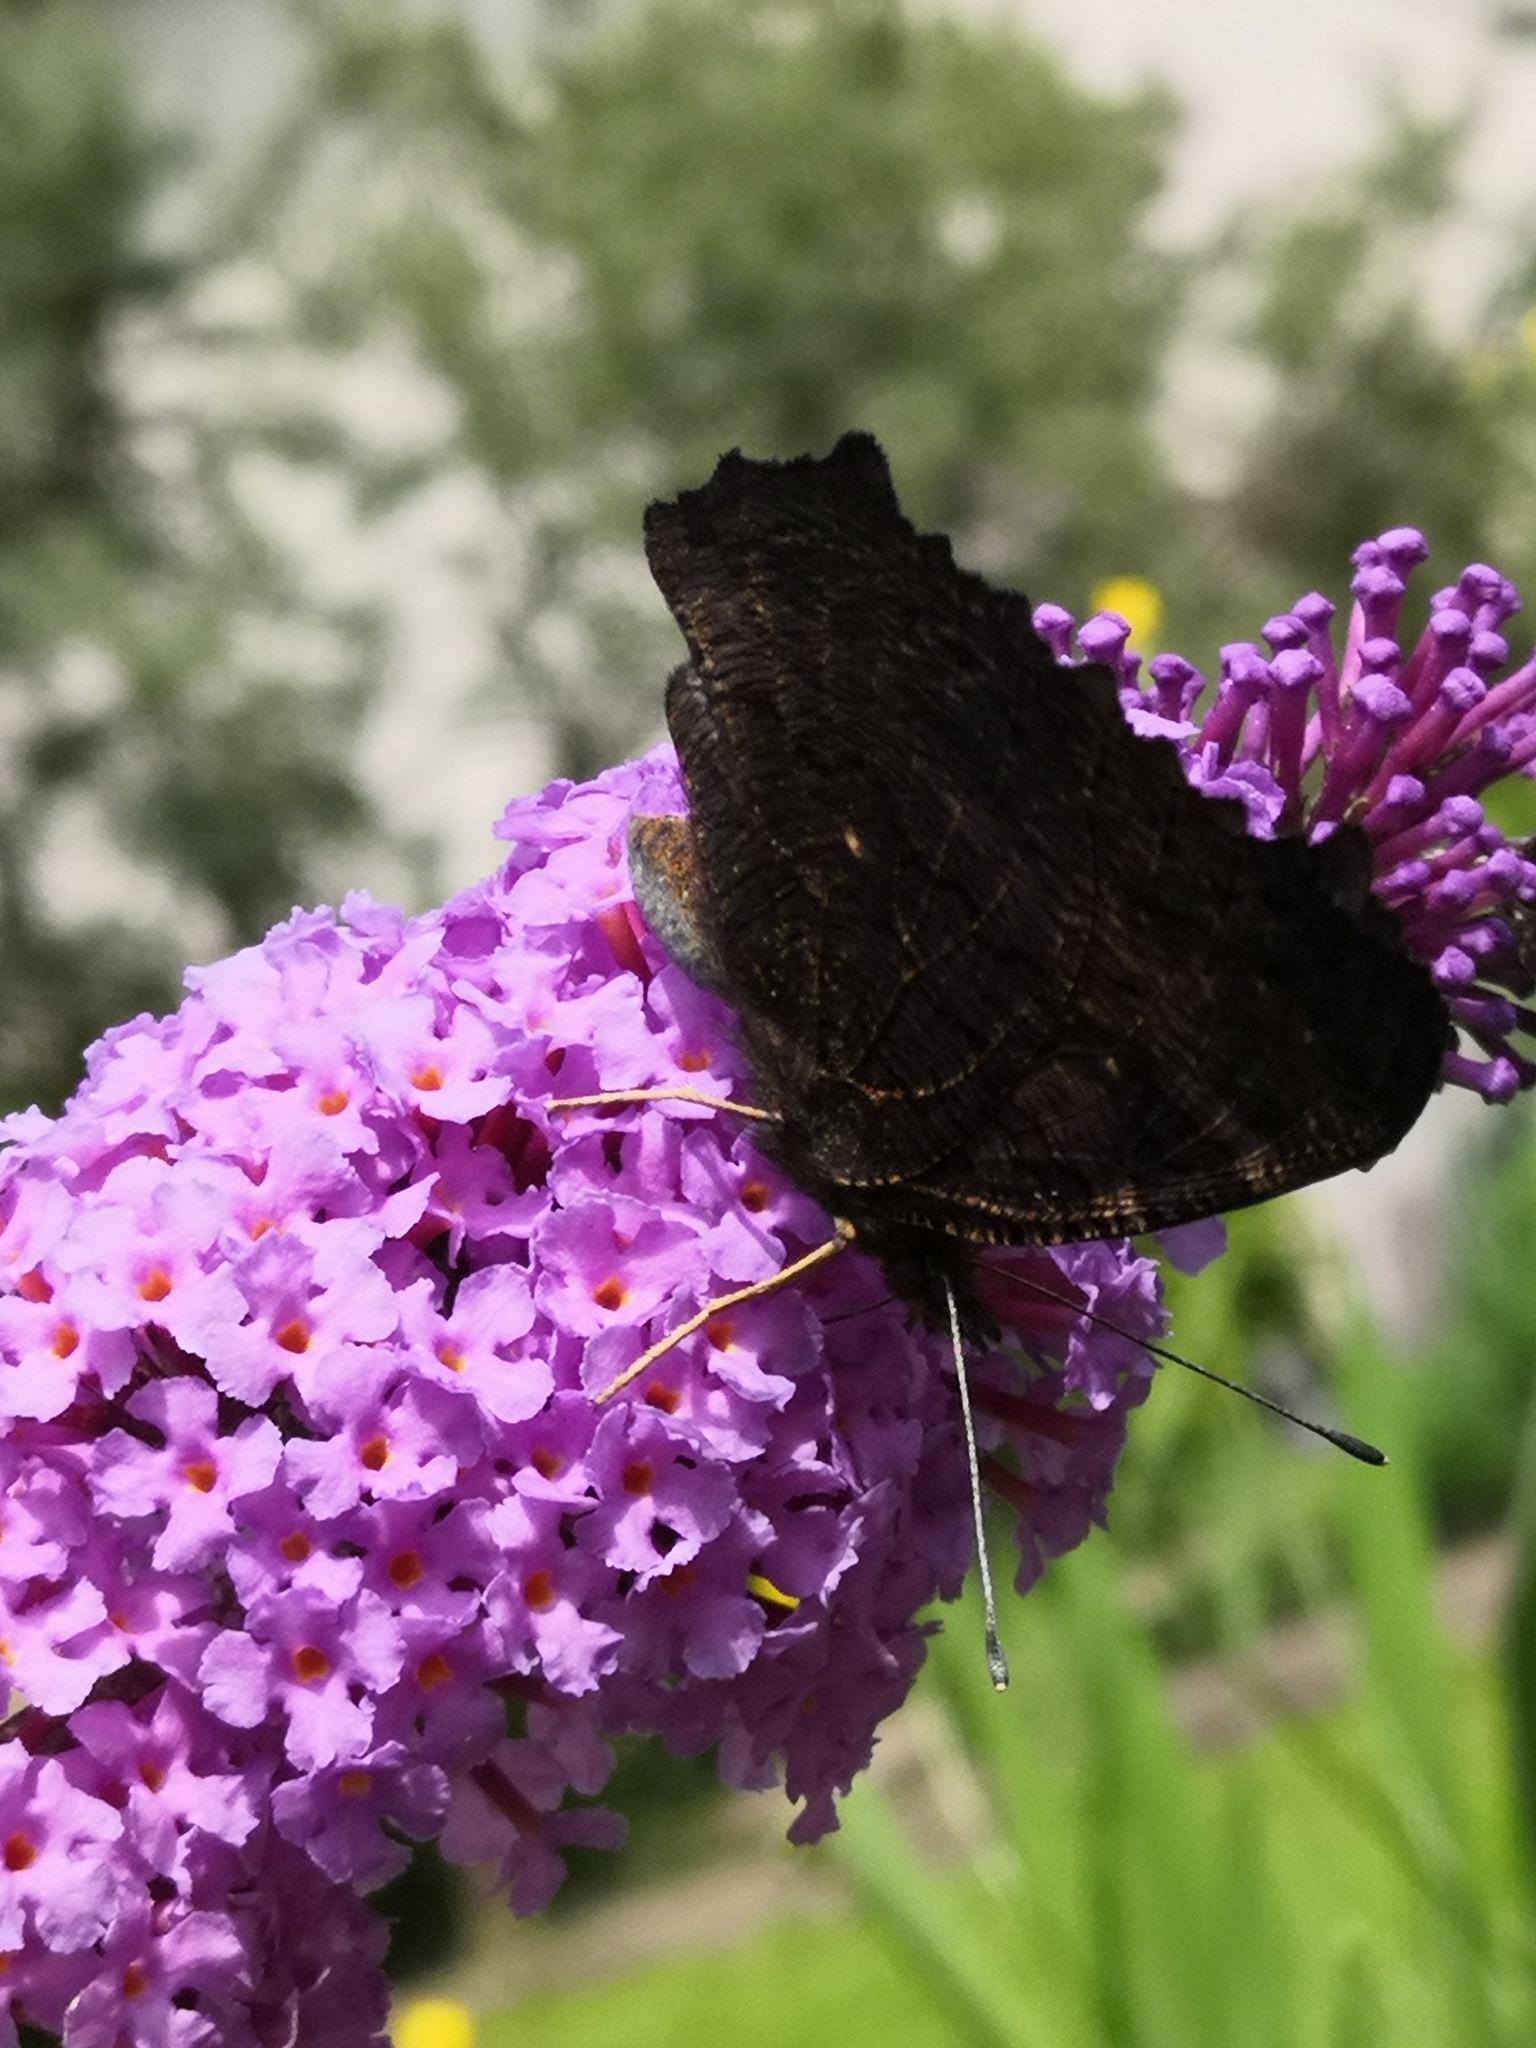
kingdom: Animalia
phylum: Arthropoda
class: Insecta
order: Lepidoptera
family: Nymphalidae
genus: Aglais
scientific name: Aglais io
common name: Peacock
